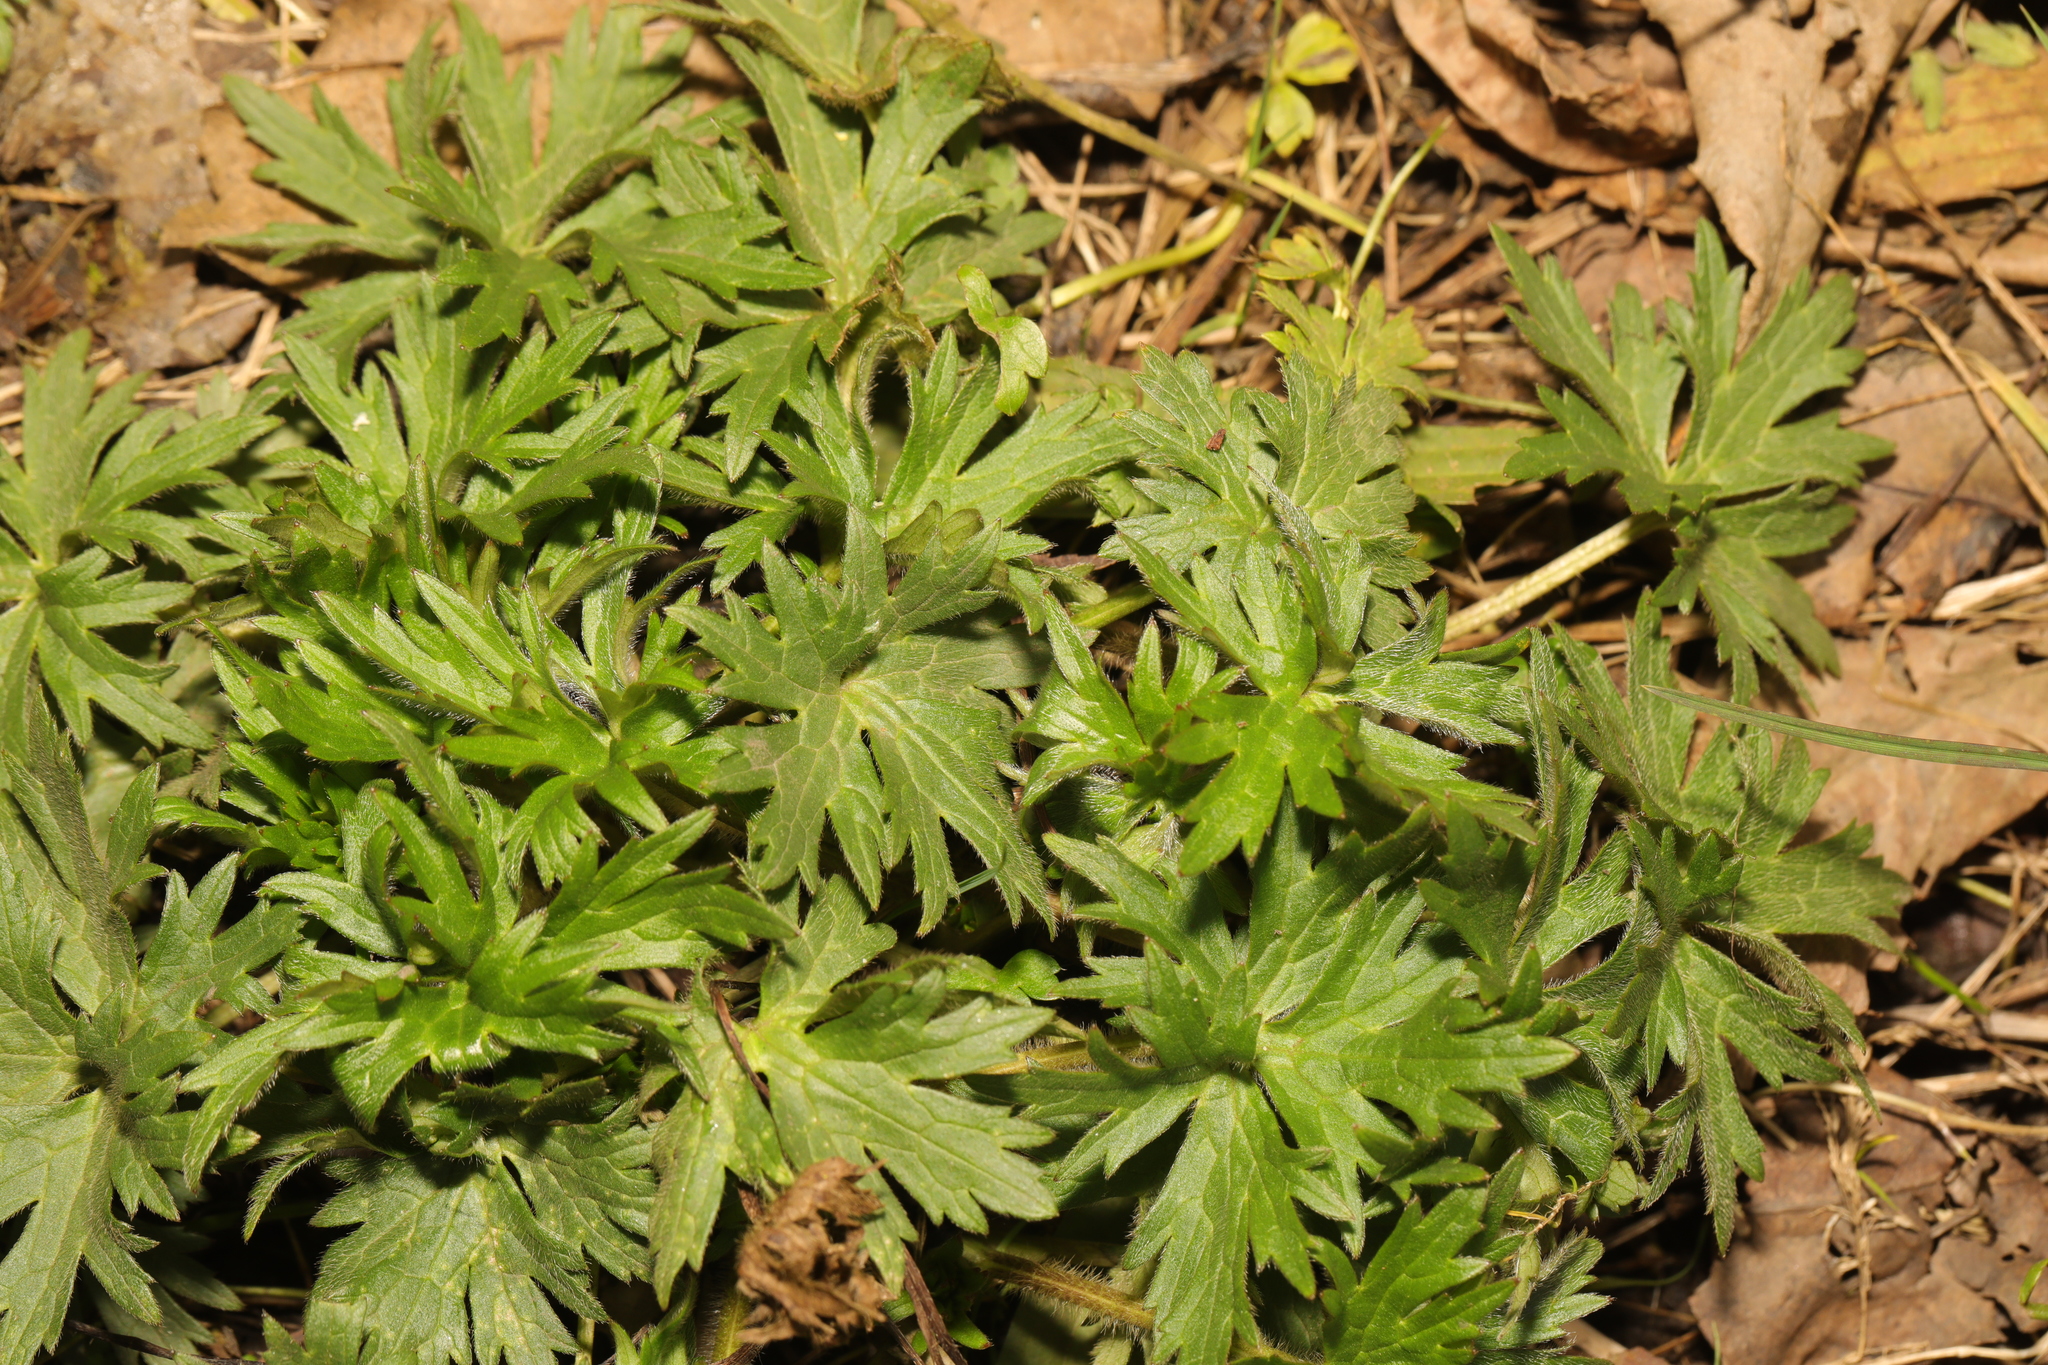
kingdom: Plantae
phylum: Tracheophyta
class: Magnoliopsida
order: Ranunculales
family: Ranunculaceae
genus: Ranunculus
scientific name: Ranunculus acris
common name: Meadow buttercup
